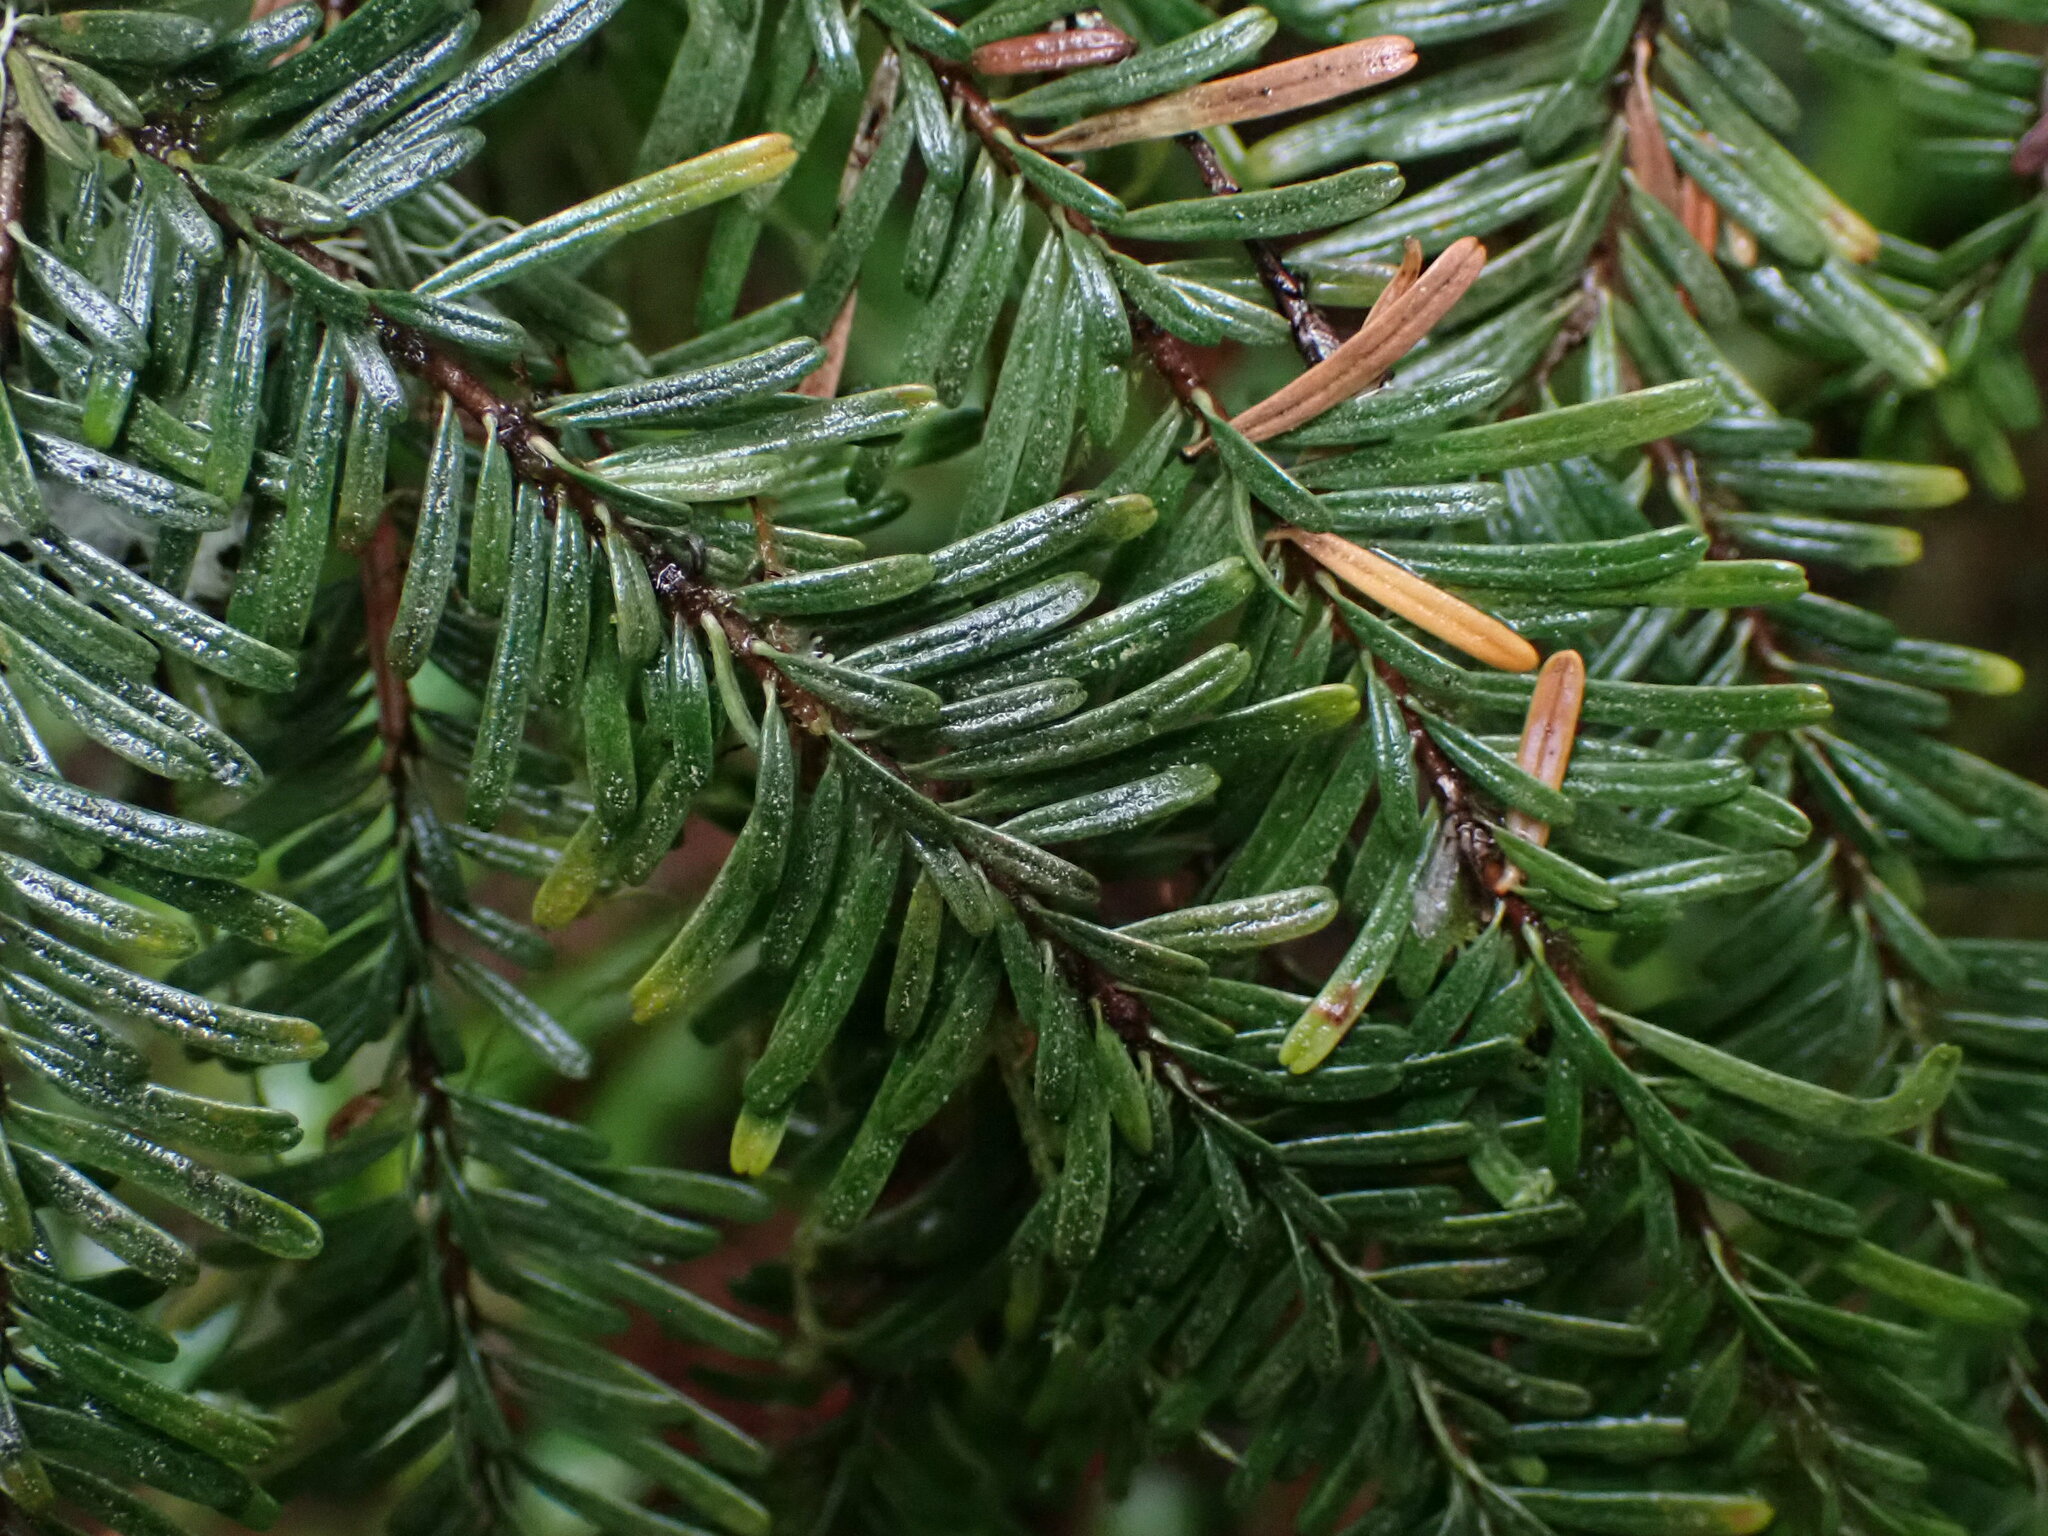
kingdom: Plantae
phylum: Tracheophyta
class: Pinopsida
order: Pinales
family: Pinaceae
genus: Abies
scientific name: Abies amabilis
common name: Pacific silver fir
